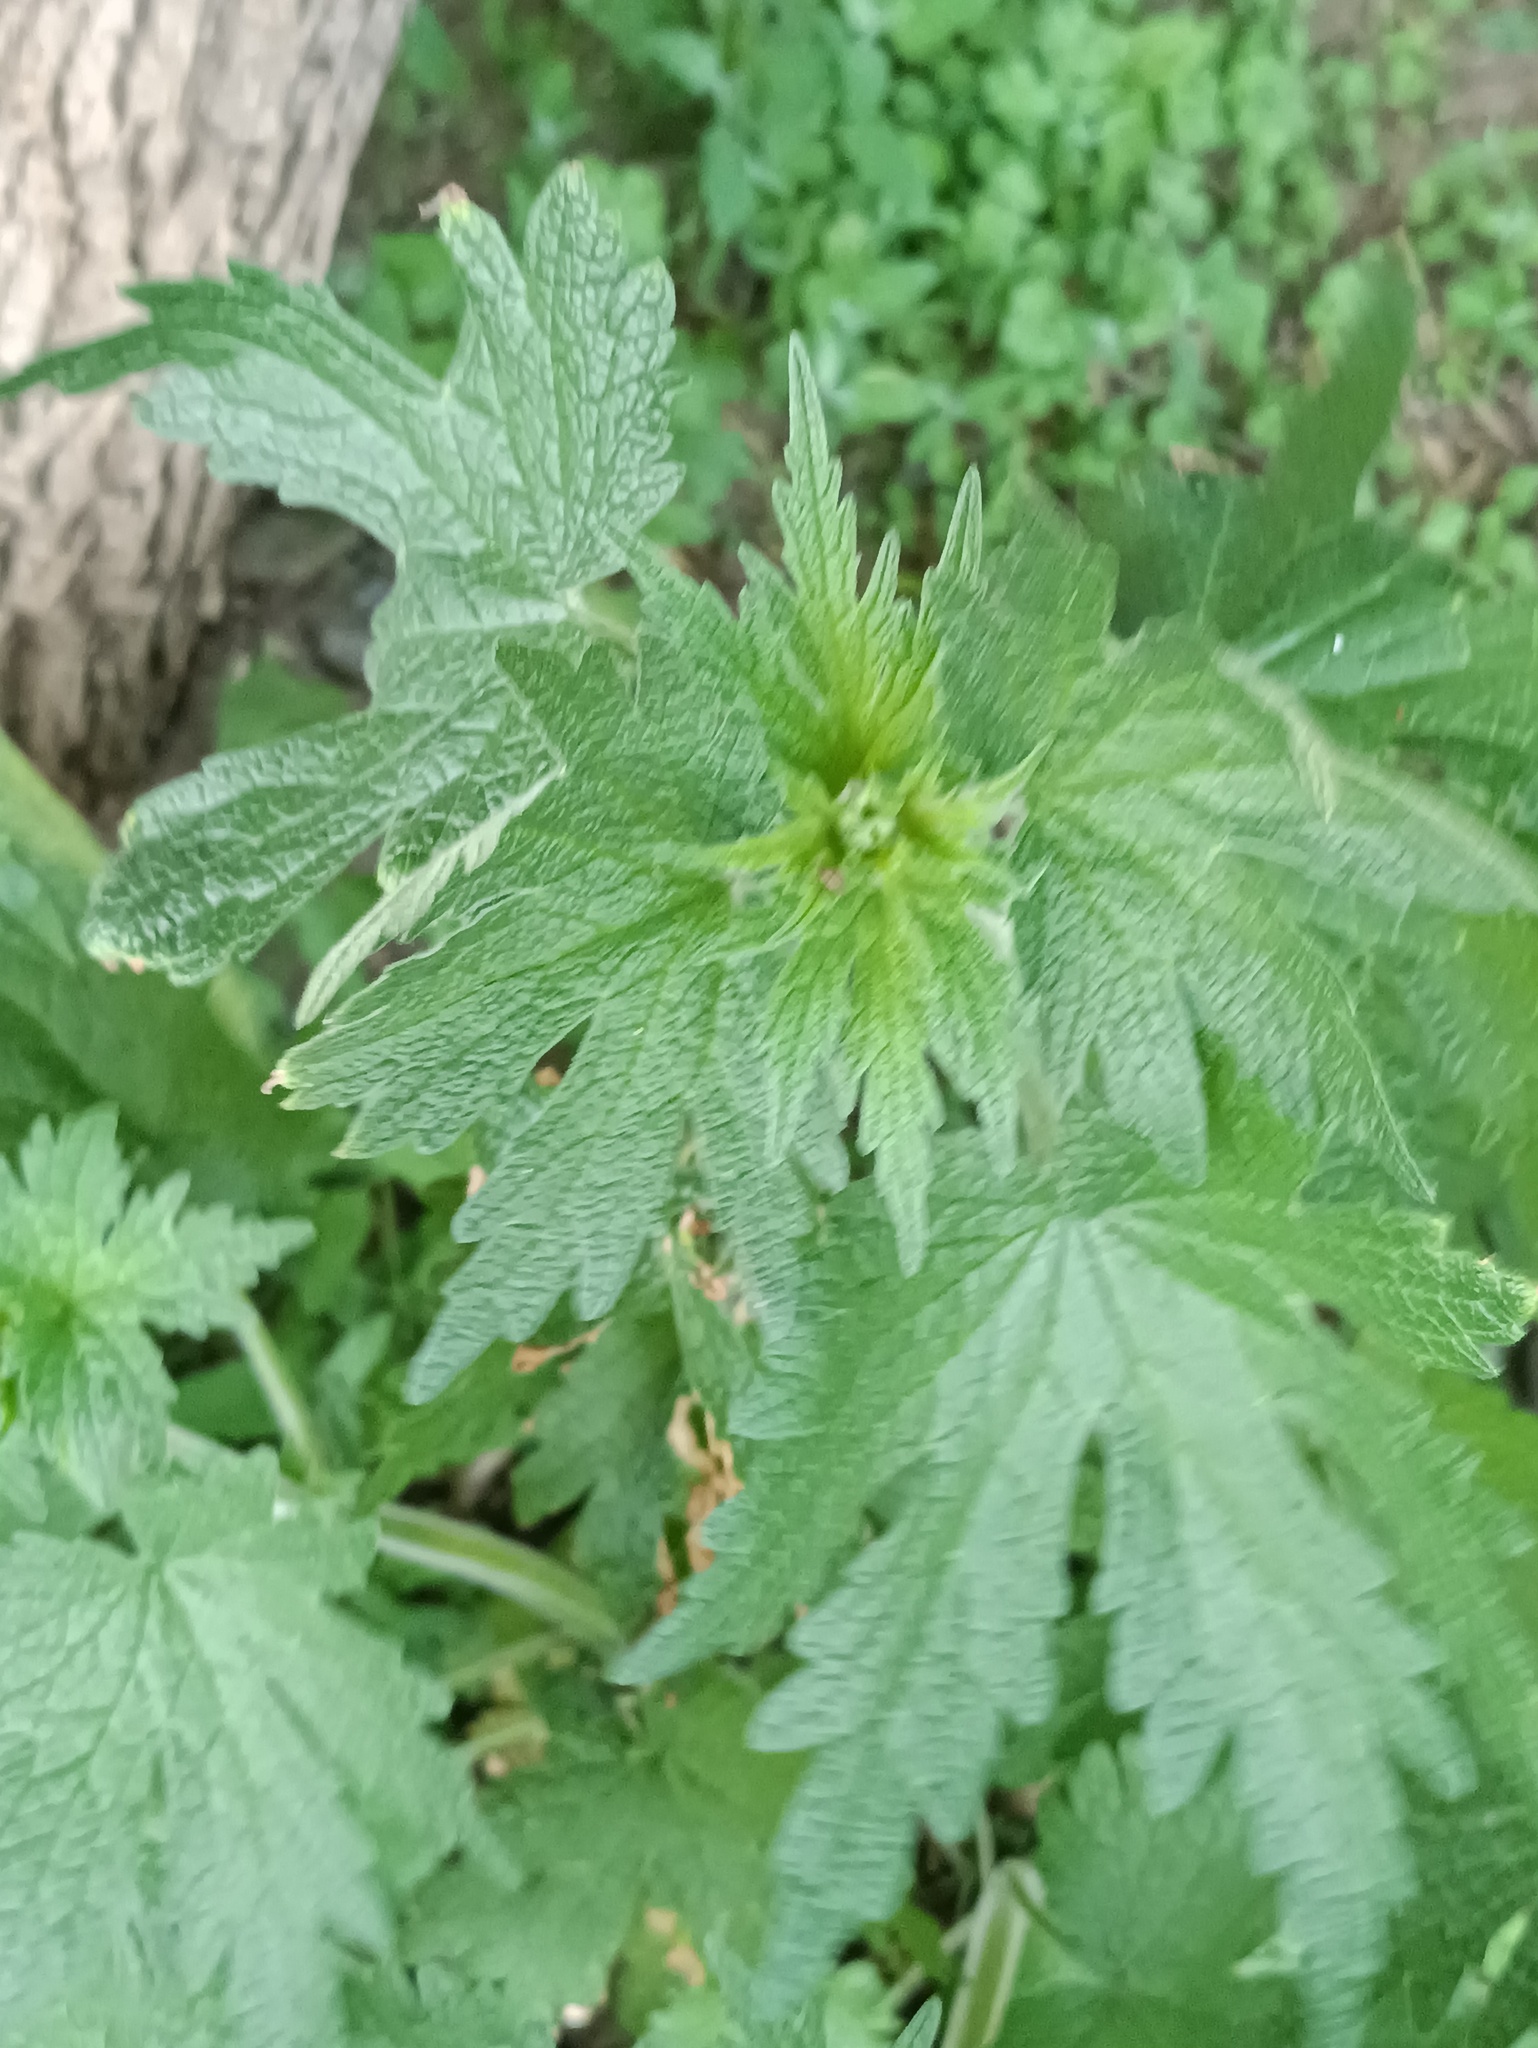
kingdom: Plantae
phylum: Tracheophyta
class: Magnoliopsida
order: Lamiales
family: Lamiaceae
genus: Leonurus
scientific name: Leonurus quinquelobatus
